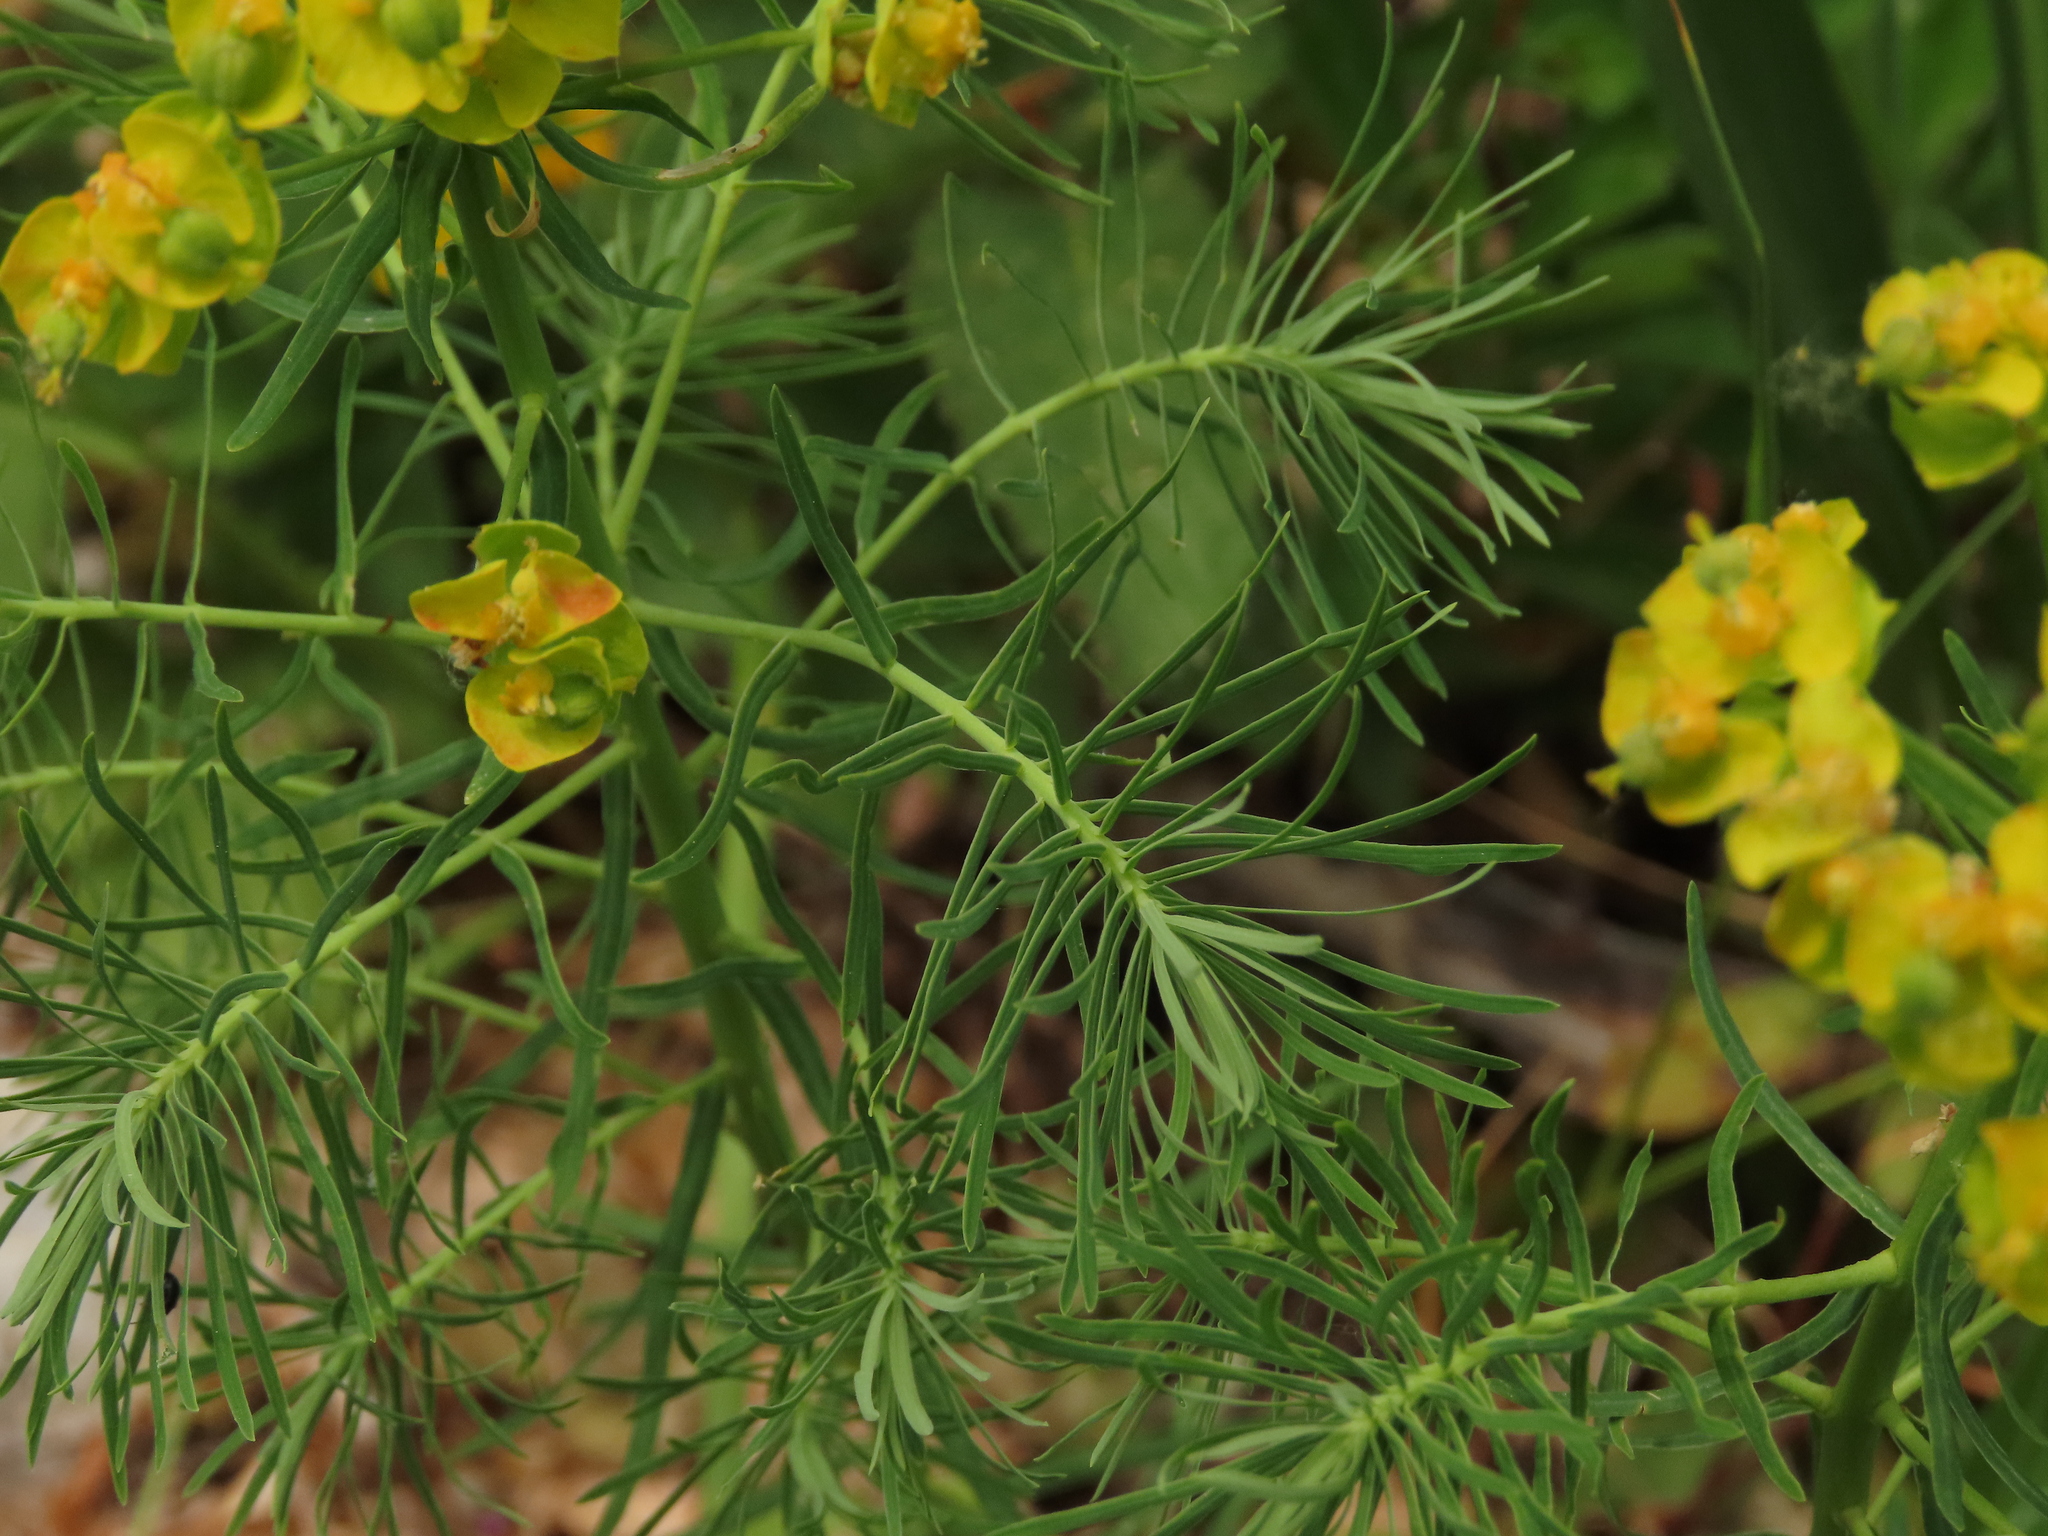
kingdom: Plantae
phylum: Tracheophyta
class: Magnoliopsida
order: Malpighiales
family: Euphorbiaceae
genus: Euphorbia
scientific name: Euphorbia cyparissias
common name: Cypress spurge
